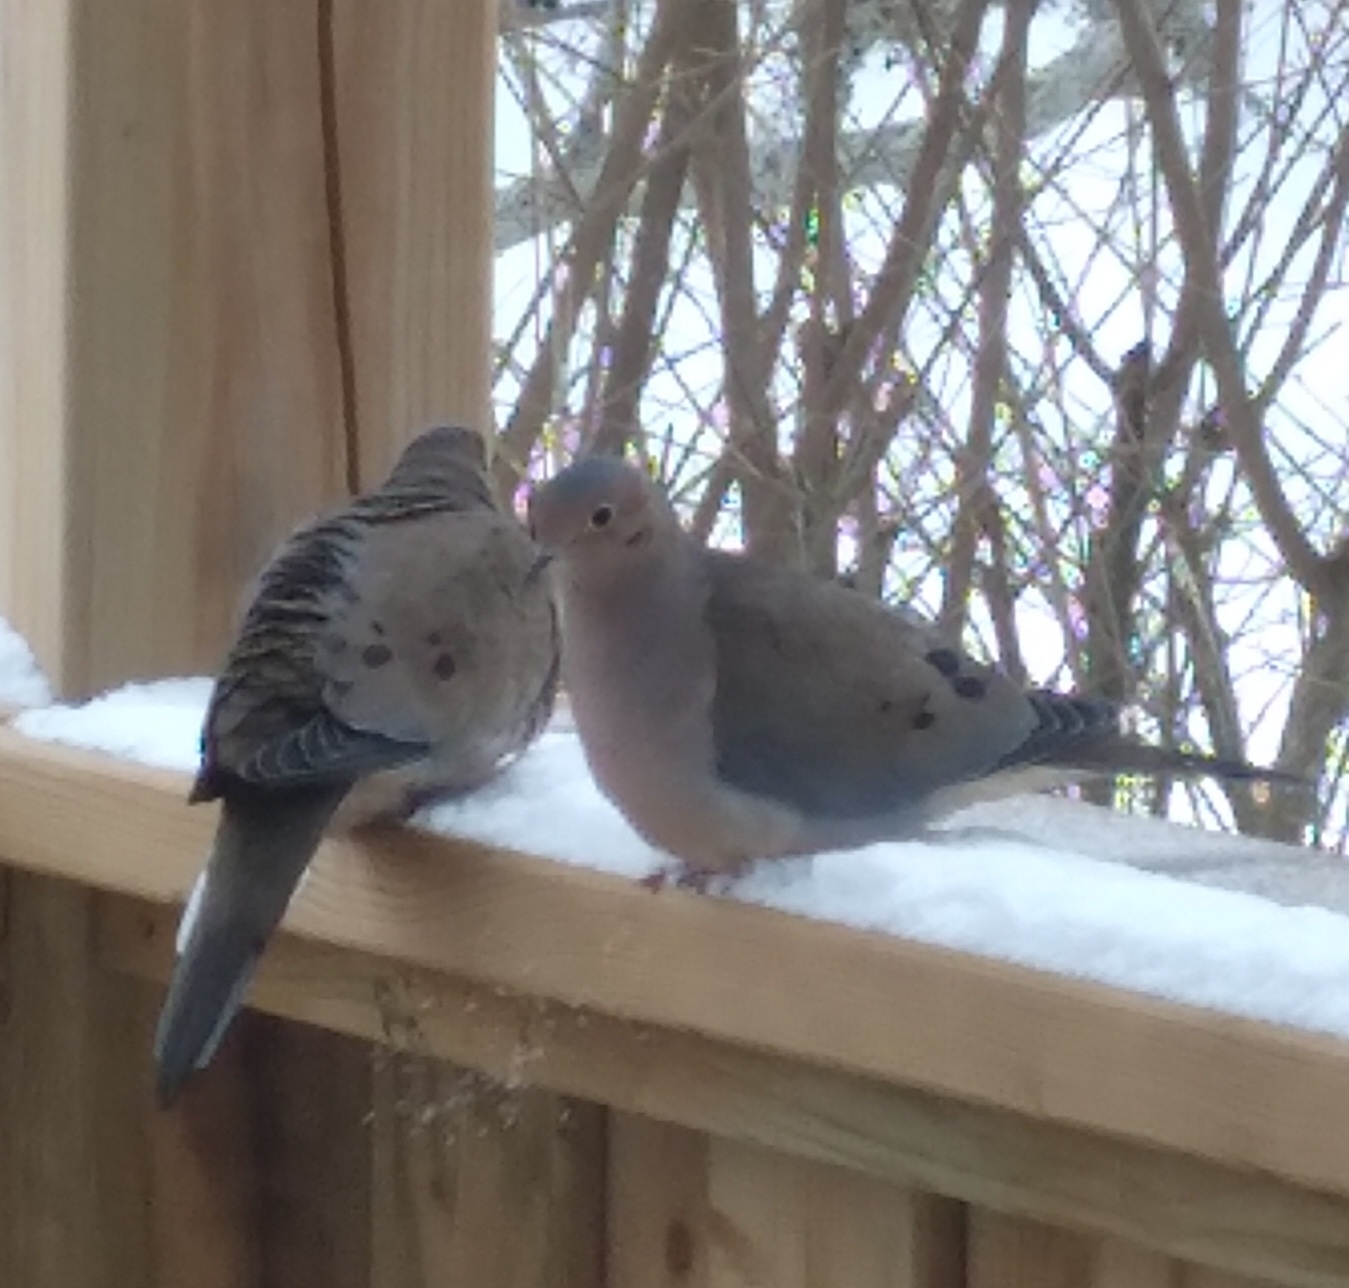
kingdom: Animalia
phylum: Chordata
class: Aves
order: Columbiformes
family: Columbidae
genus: Zenaida
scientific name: Zenaida macroura
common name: Mourning dove
